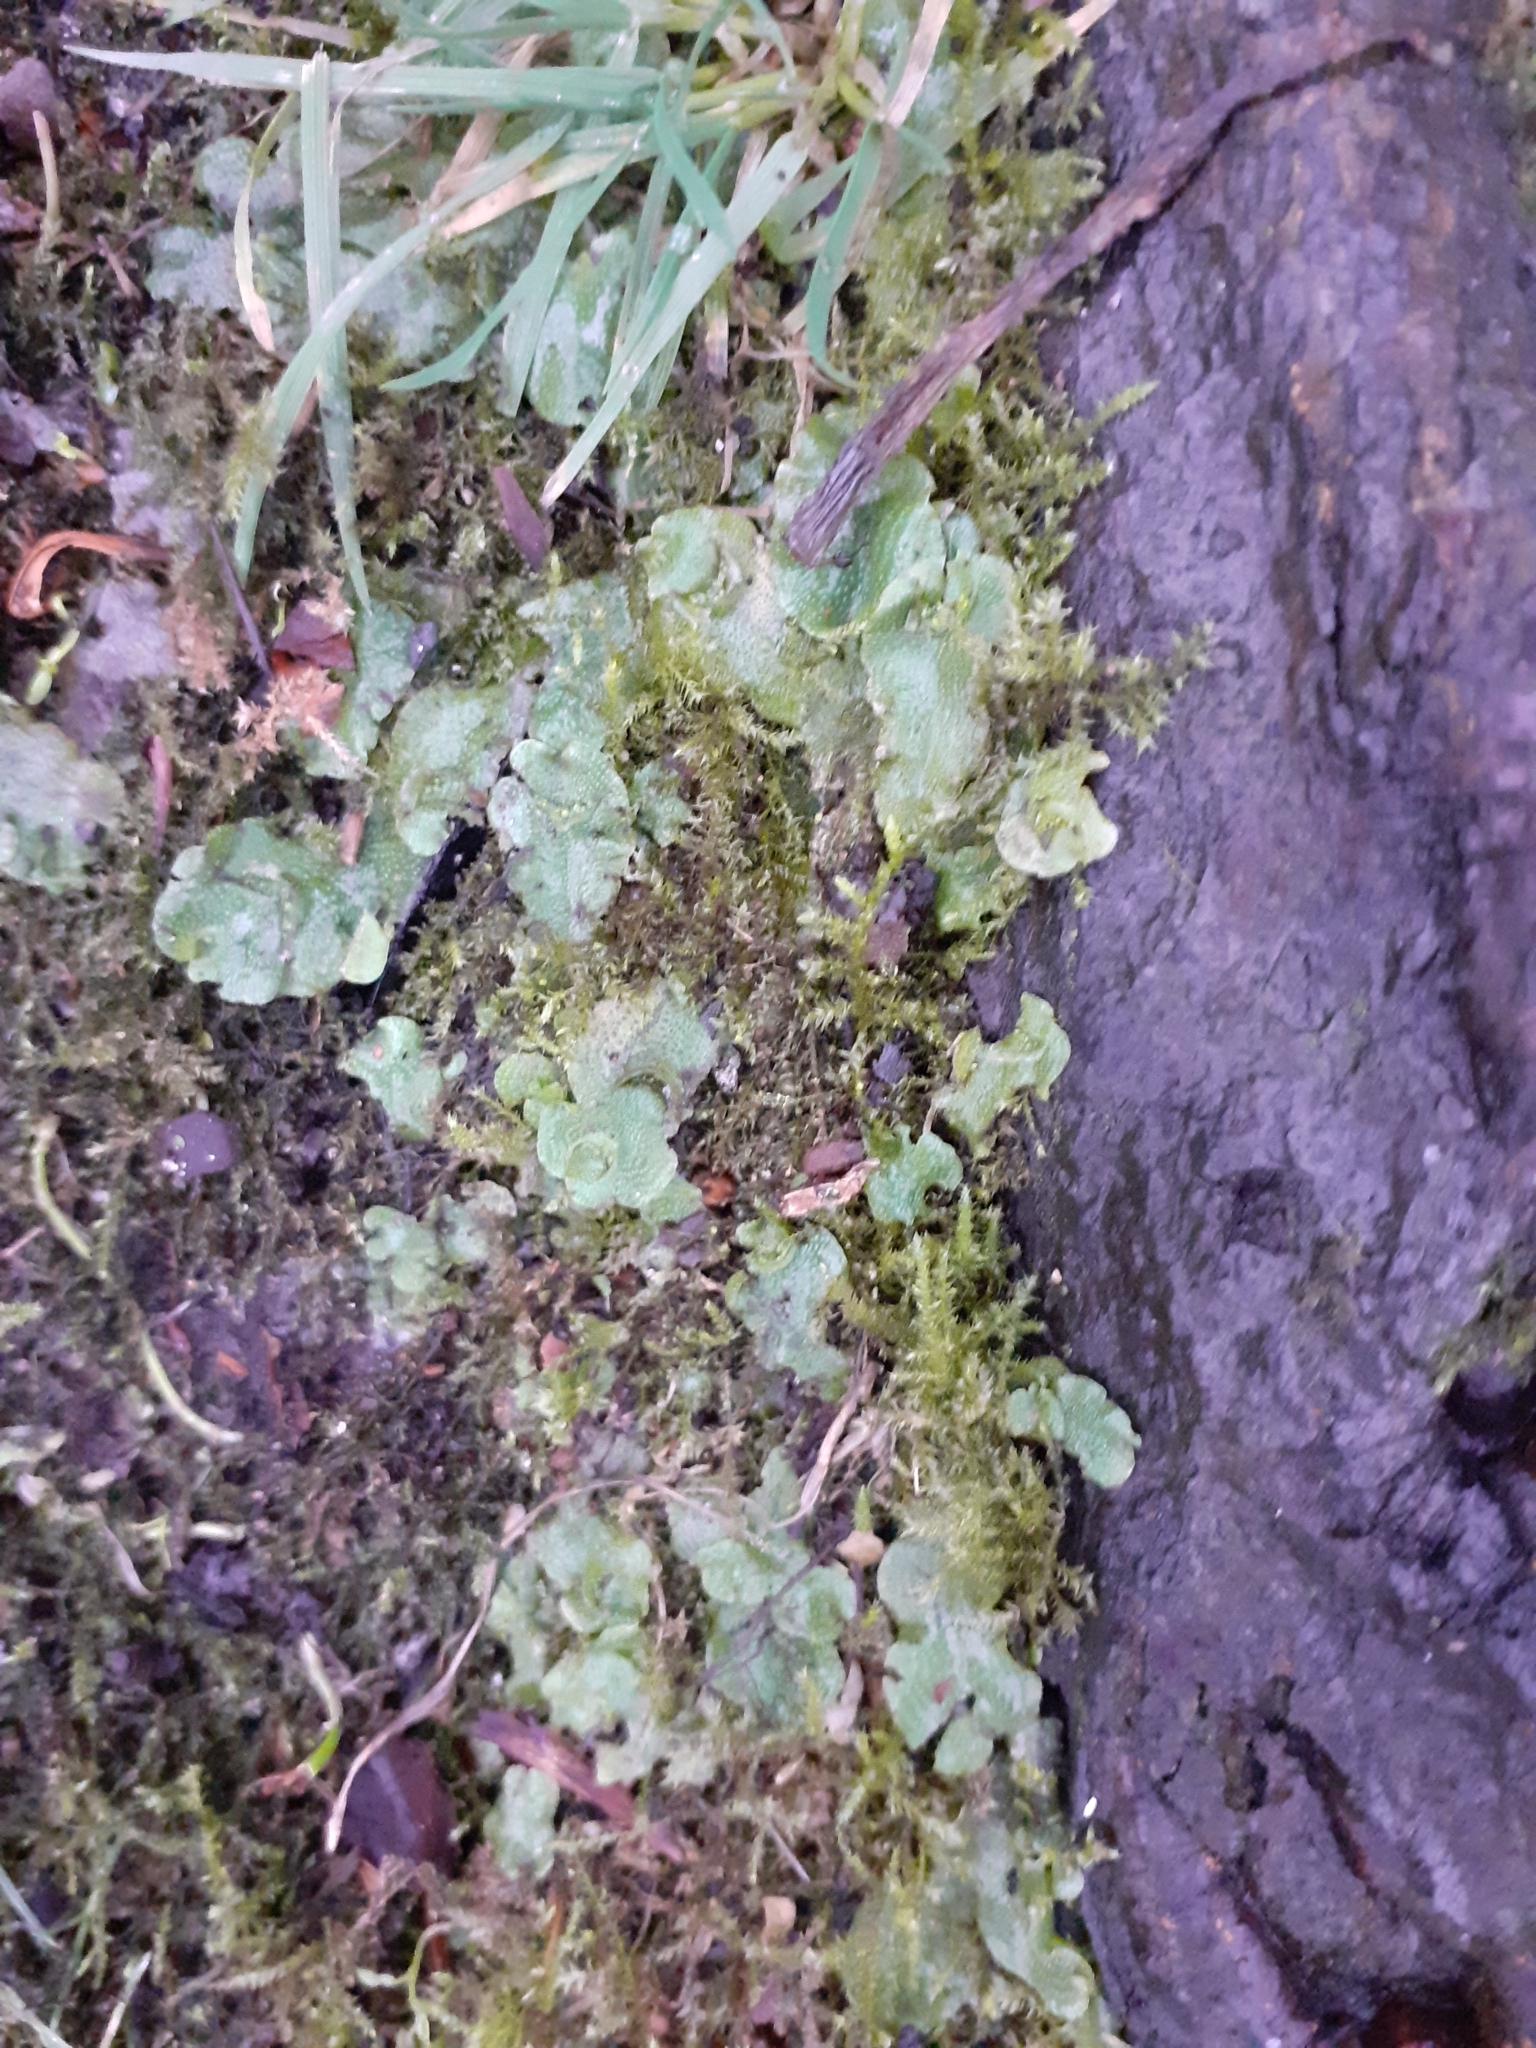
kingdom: Plantae
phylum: Marchantiophyta
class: Marchantiopsida
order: Lunulariales
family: Lunulariaceae
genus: Lunularia
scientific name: Lunularia cruciata
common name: Crescent-cup liverwort
